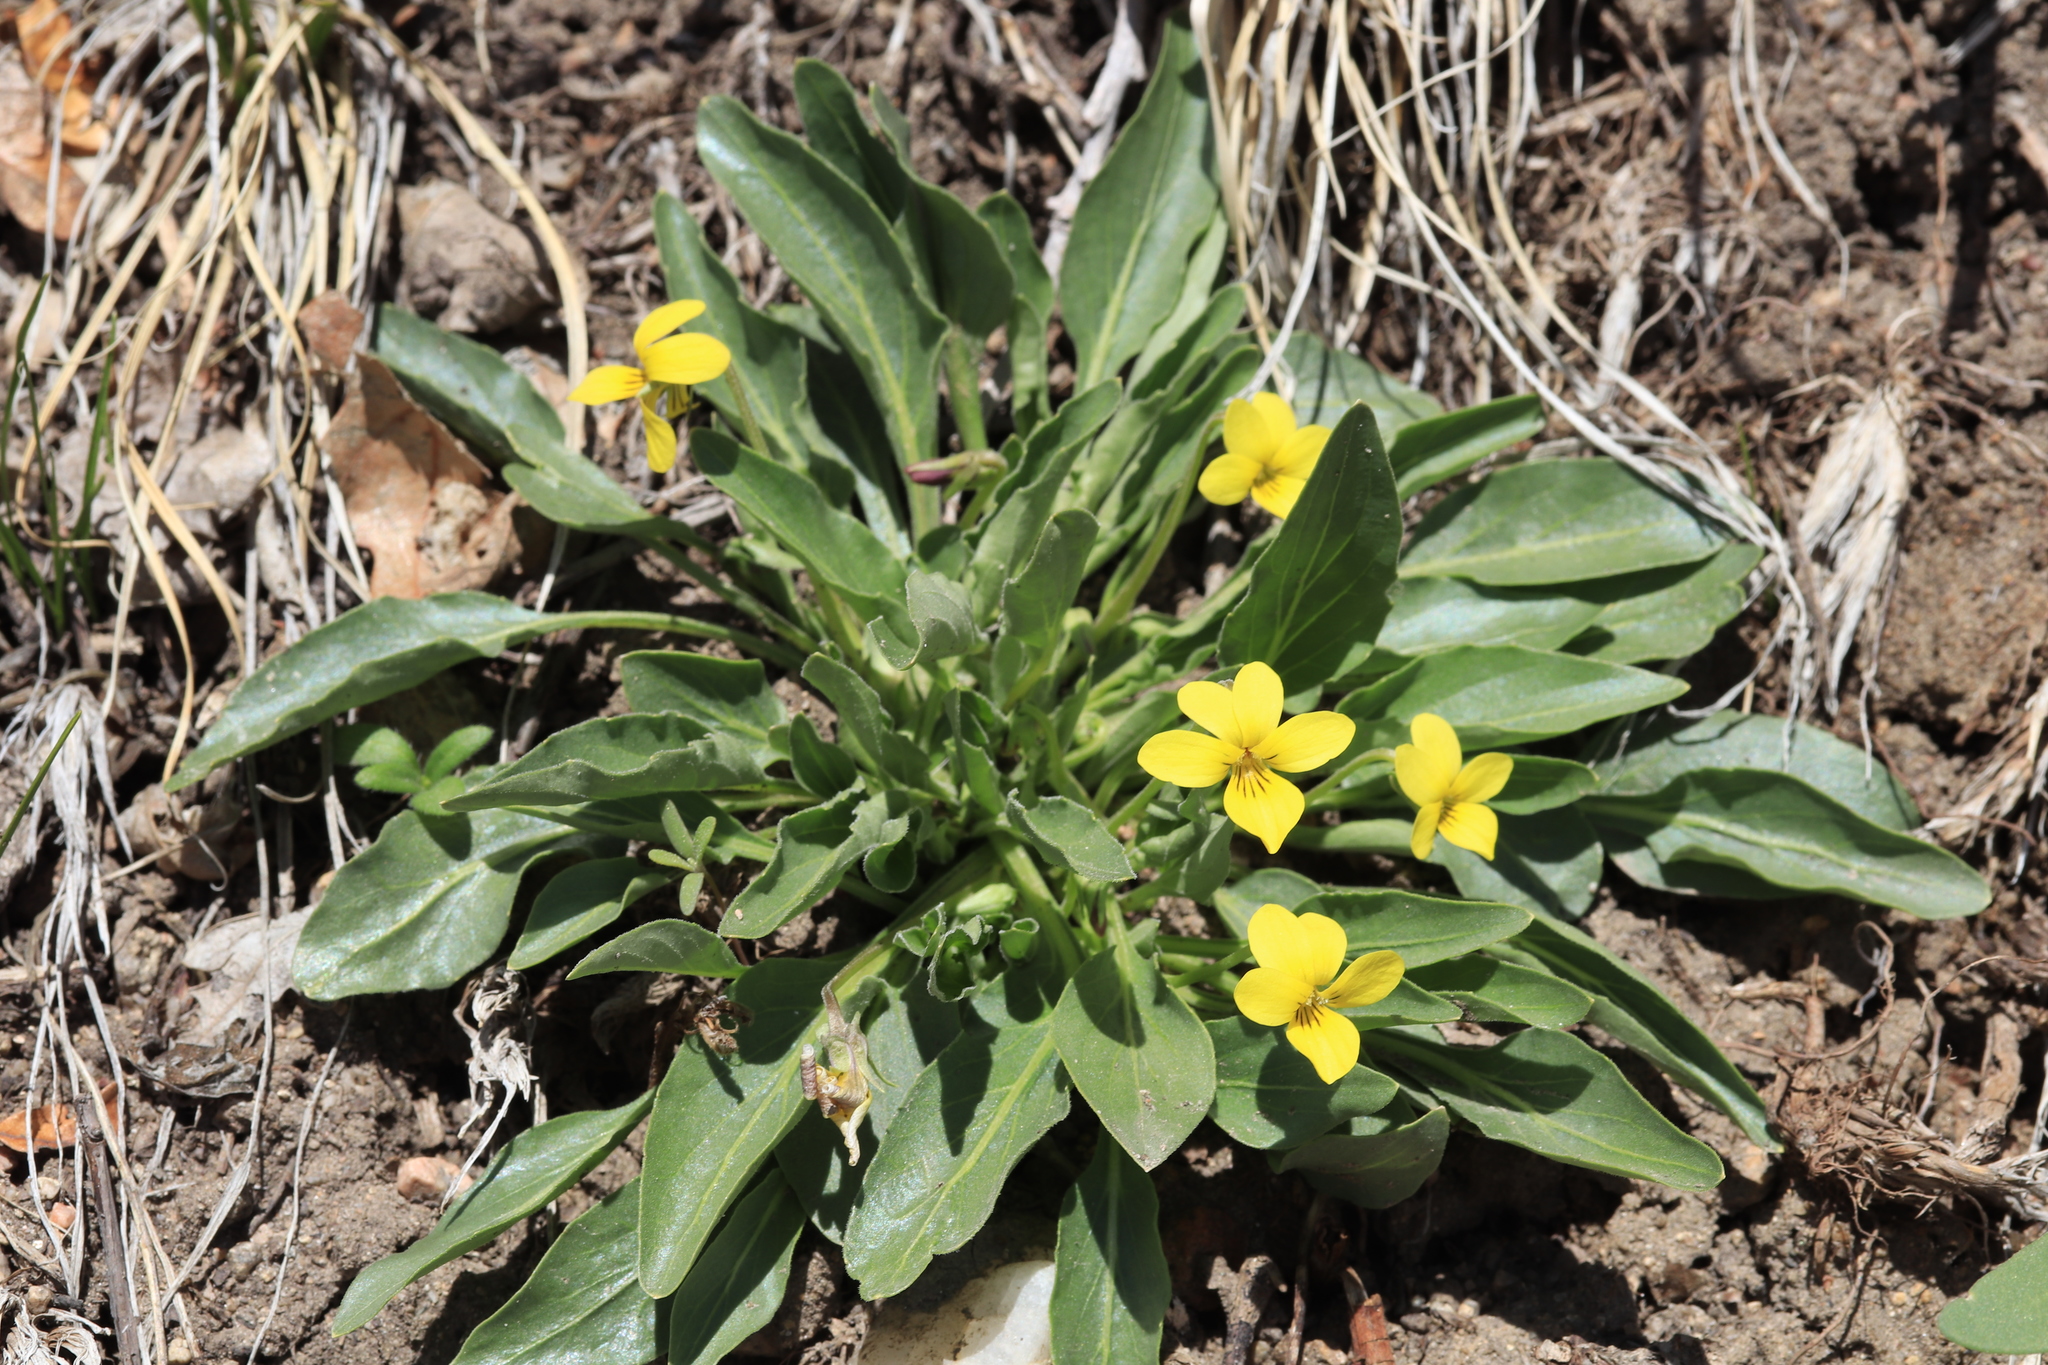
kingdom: Plantae
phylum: Tracheophyta
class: Magnoliopsida
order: Malpighiales
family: Violaceae
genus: Viola
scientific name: Viola nuttallii
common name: Yellow prairie violet
